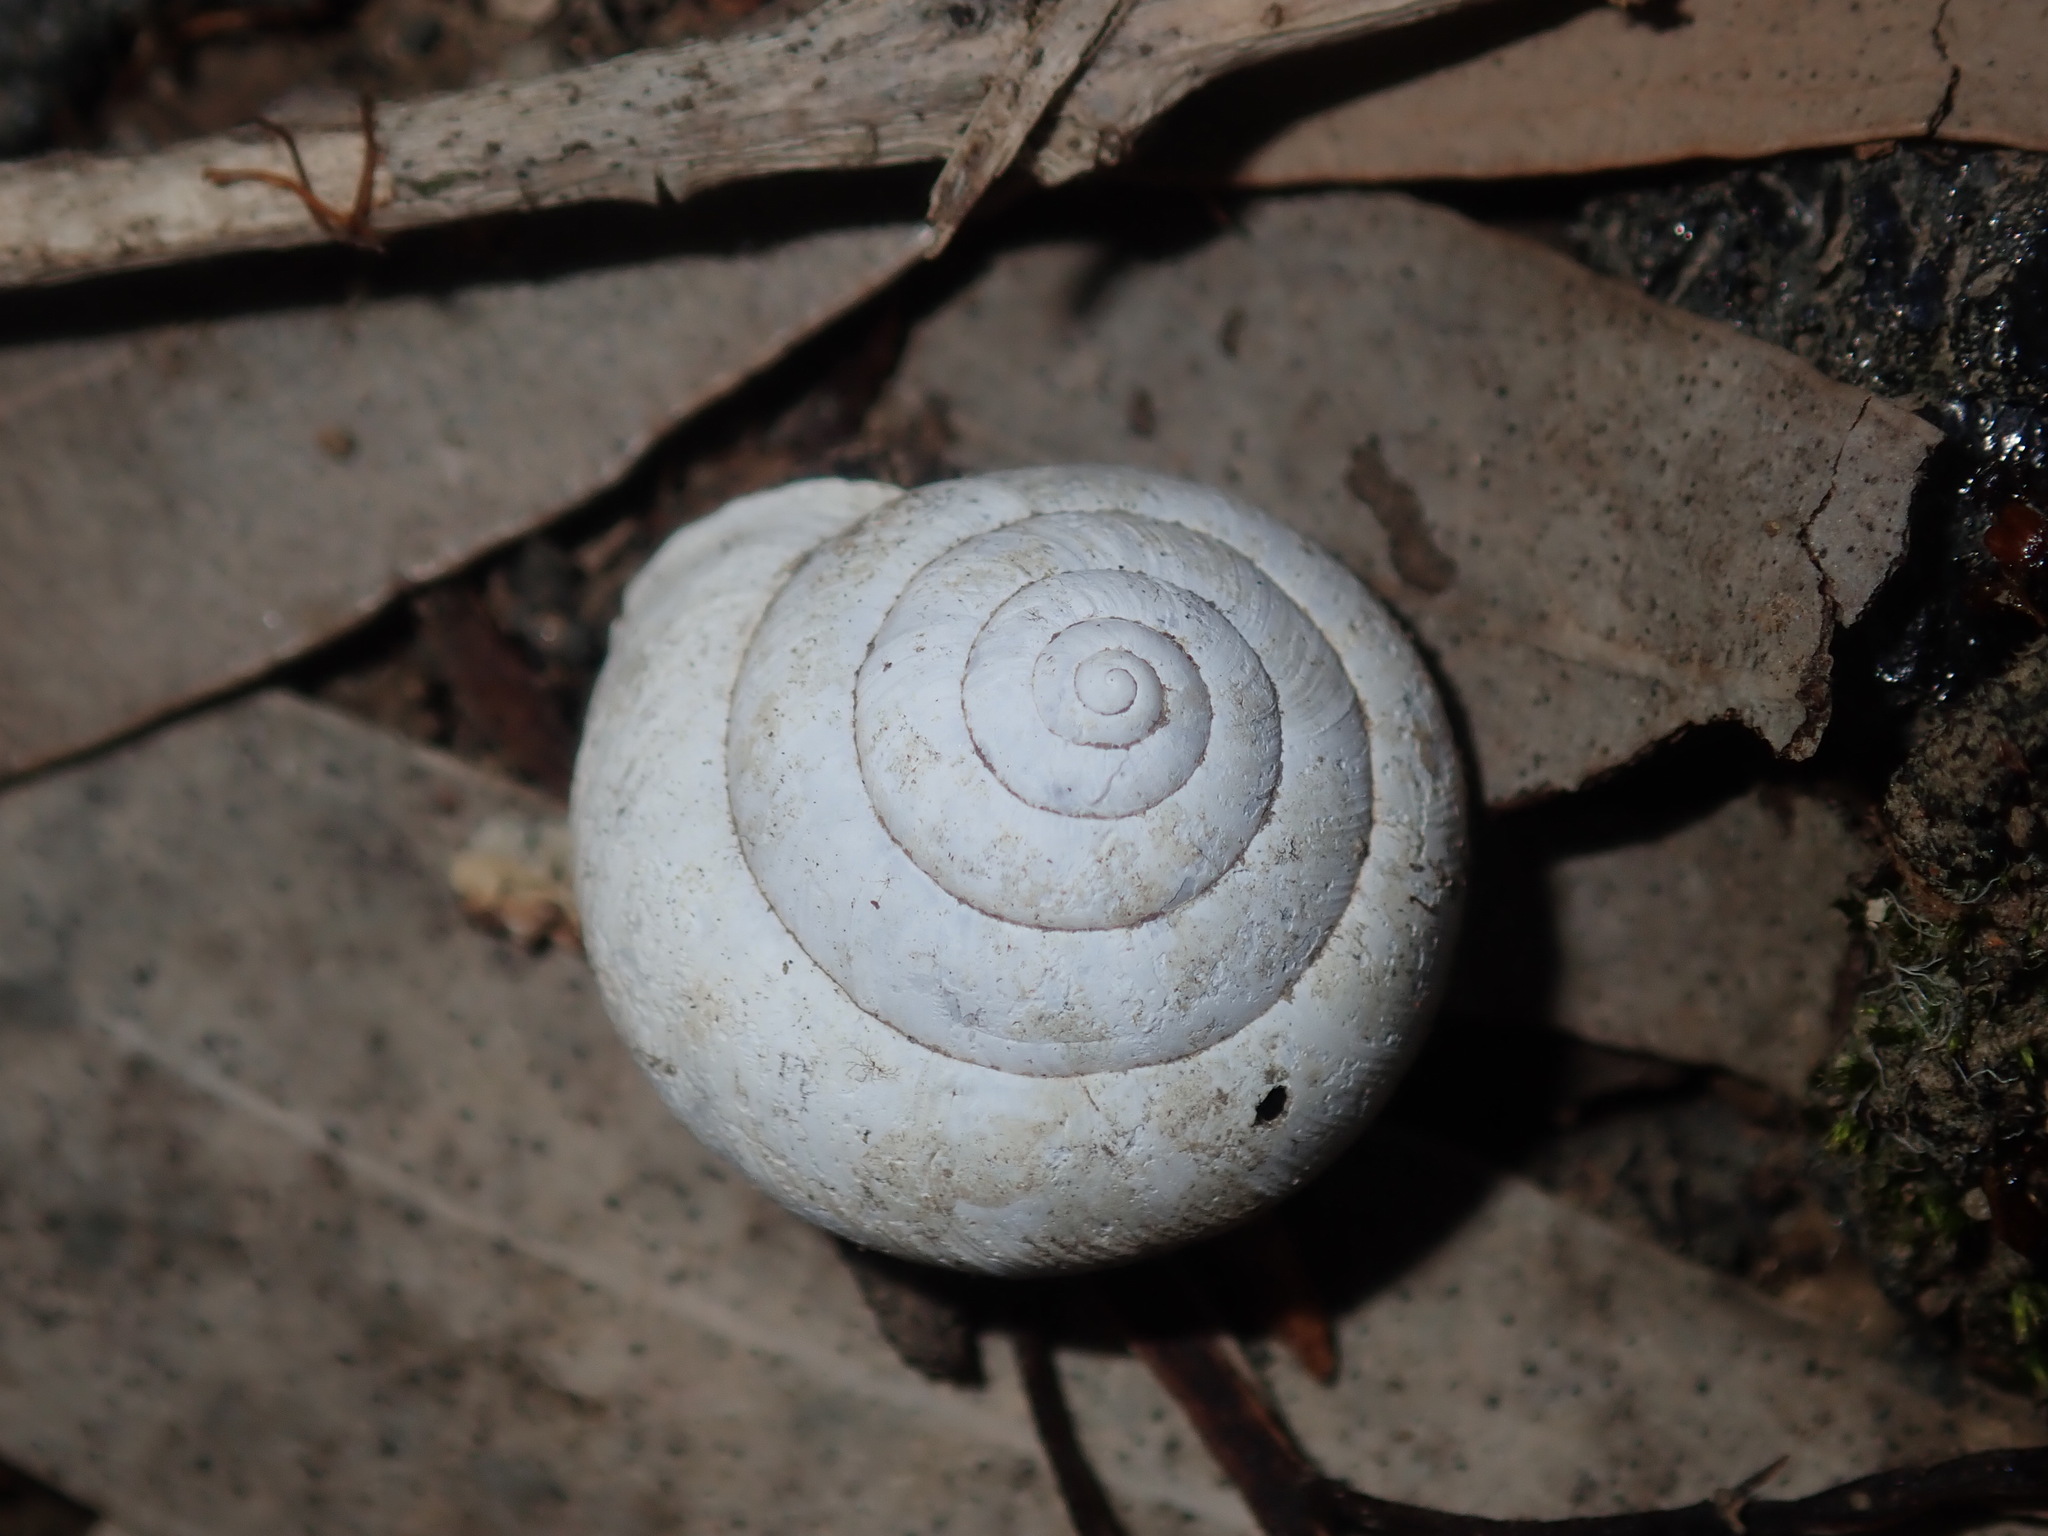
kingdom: Animalia
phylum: Mollusca
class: Gastropoda
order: Stylommatophora
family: Camaenidae
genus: Sauroconcha
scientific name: Sauroconcha sheai
